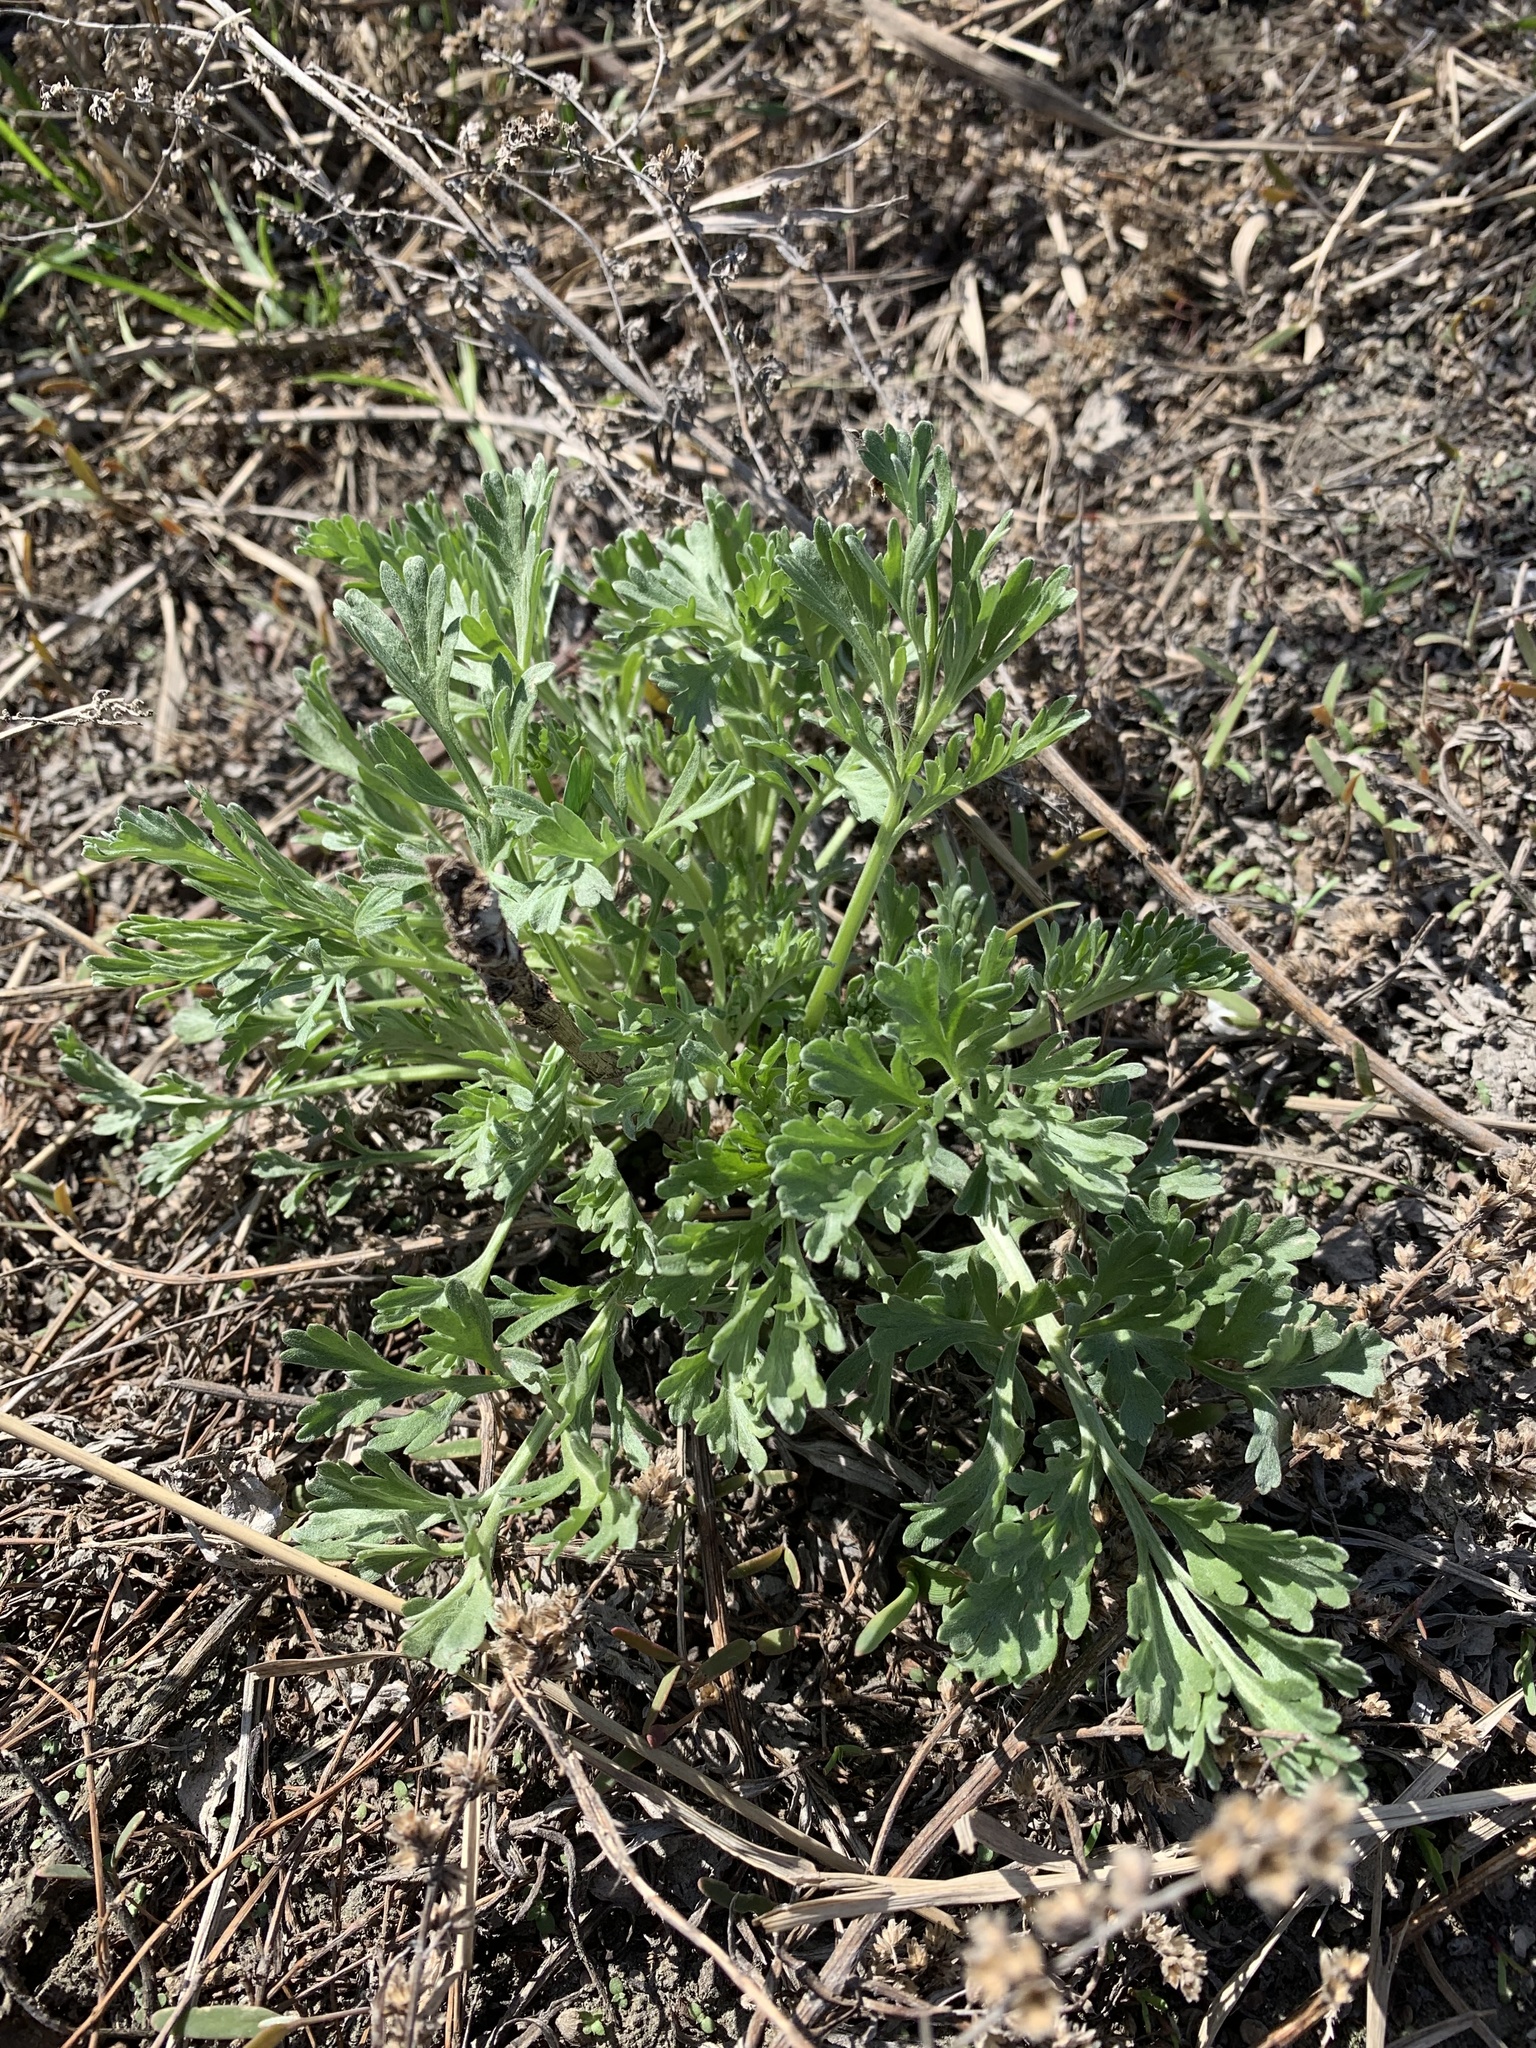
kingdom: Plantae
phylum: Tracheophyta
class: Magnoliopsida
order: Asterales
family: Asteraceae
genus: Artemisia
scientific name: Artemisia sieversiana
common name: Sieversian wormwood
